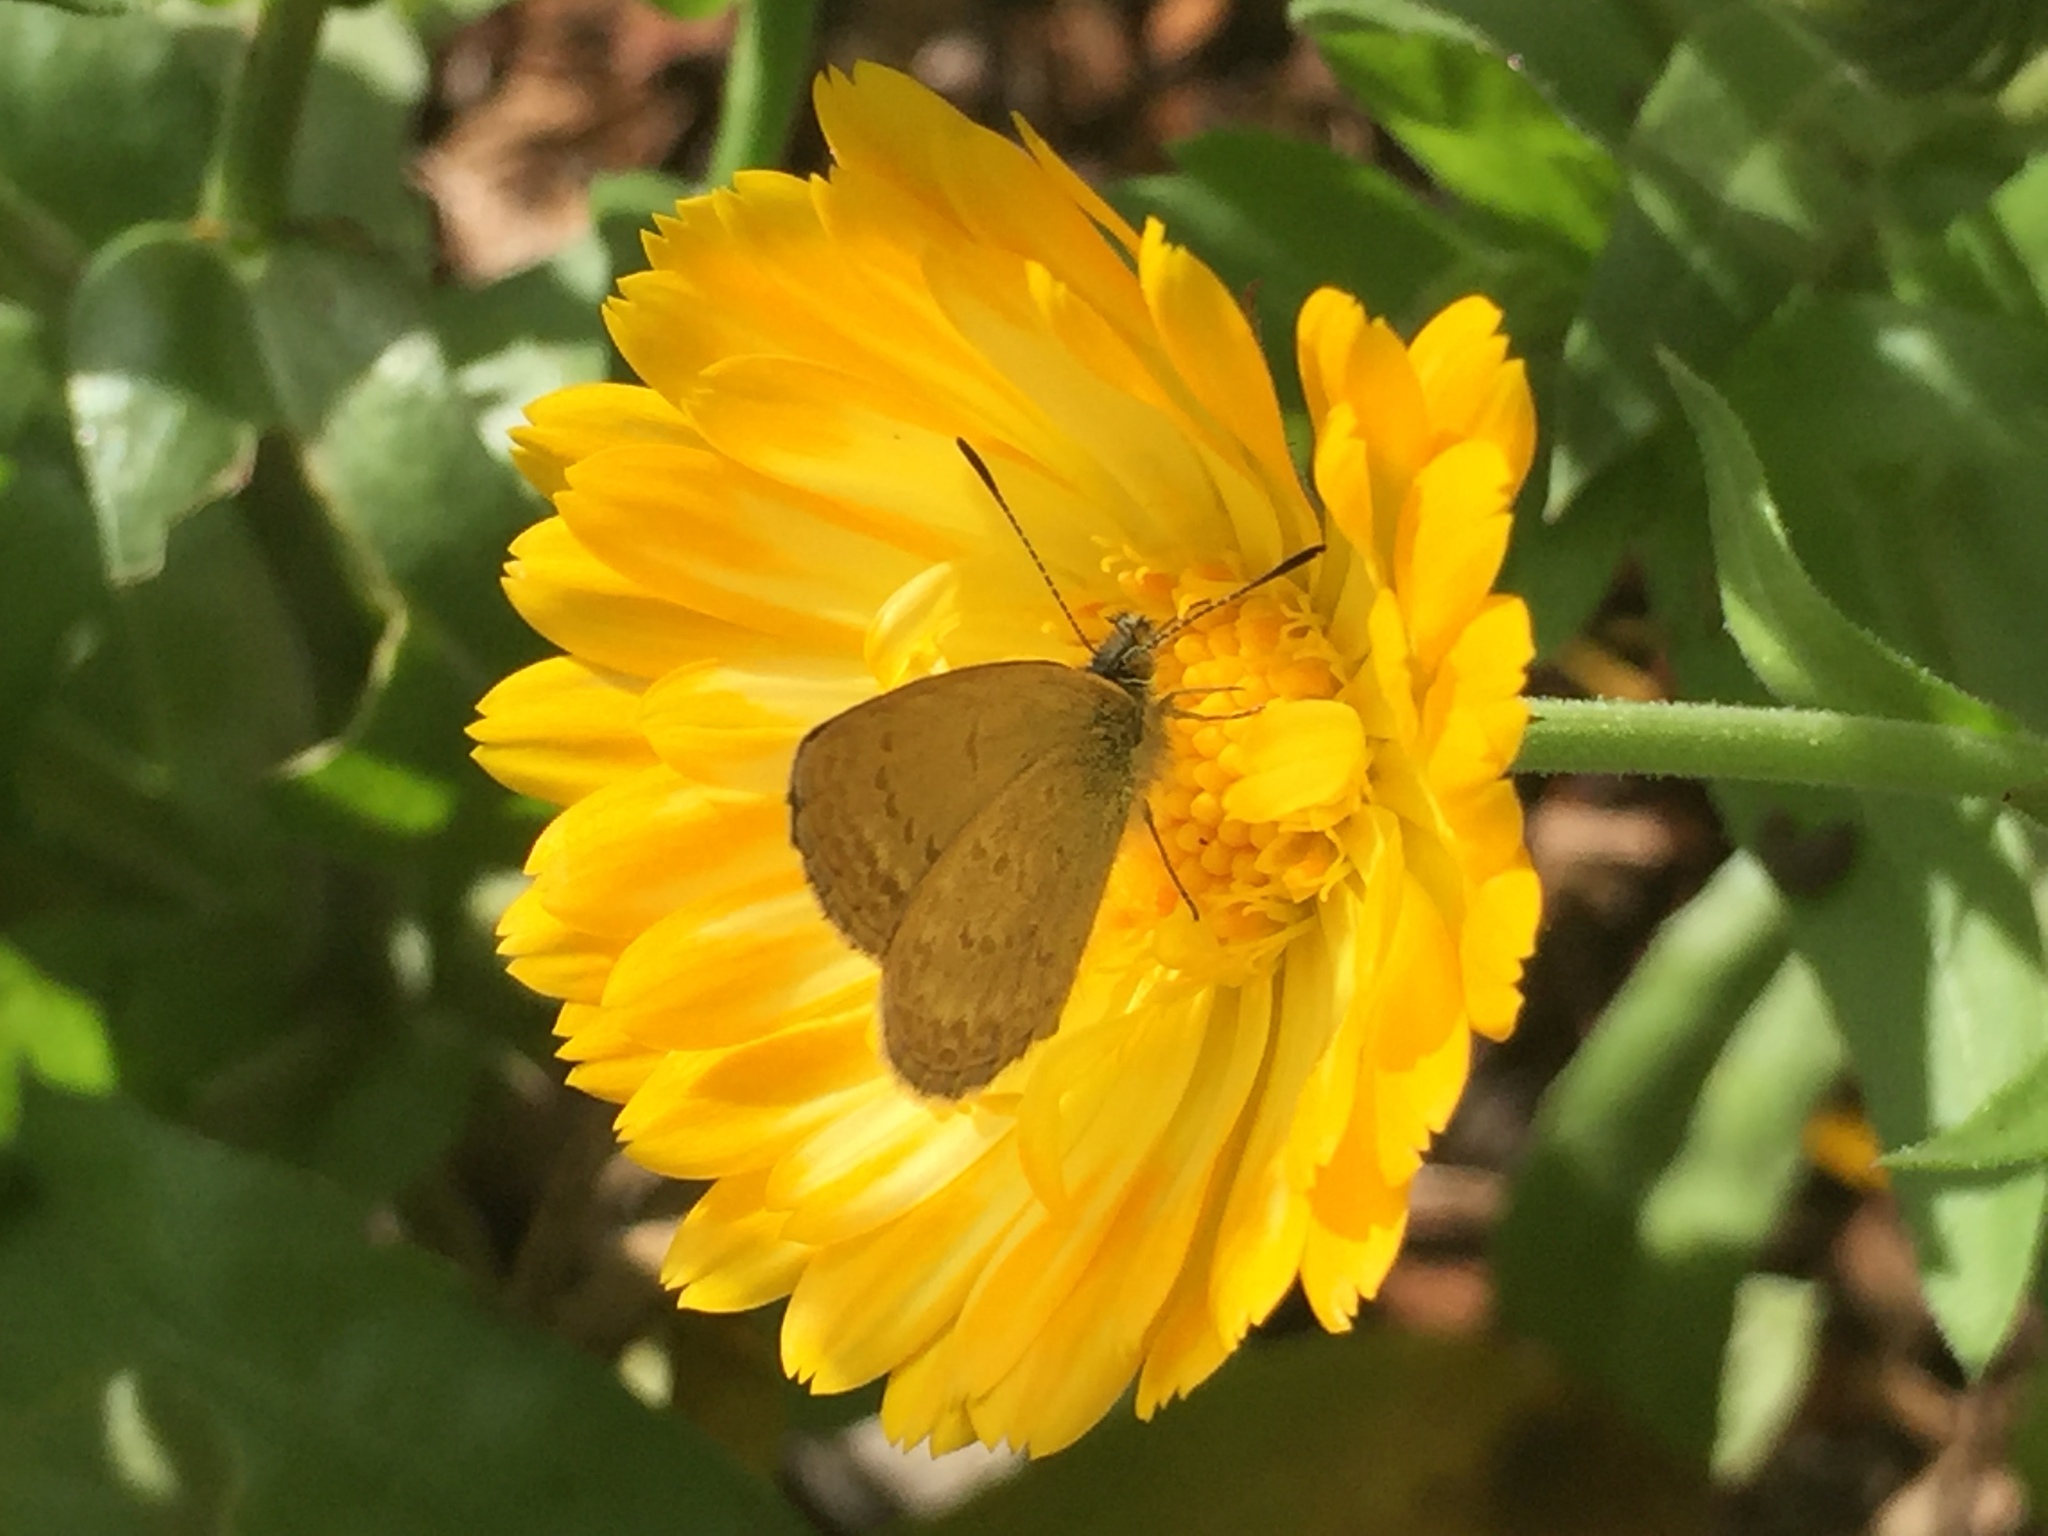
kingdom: Animalia
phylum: Arthropoda
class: Insecta
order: Lepidoptera
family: Lycaenidae
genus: Zizina
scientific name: Zizina labradus
